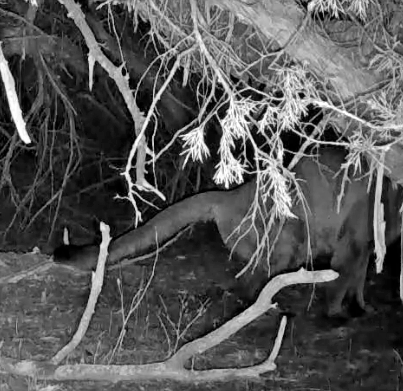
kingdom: Animalia
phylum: Chordata
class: Mammalia
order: Carnivora
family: Felidae
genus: Puma
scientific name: Puma concolor
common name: Puma
